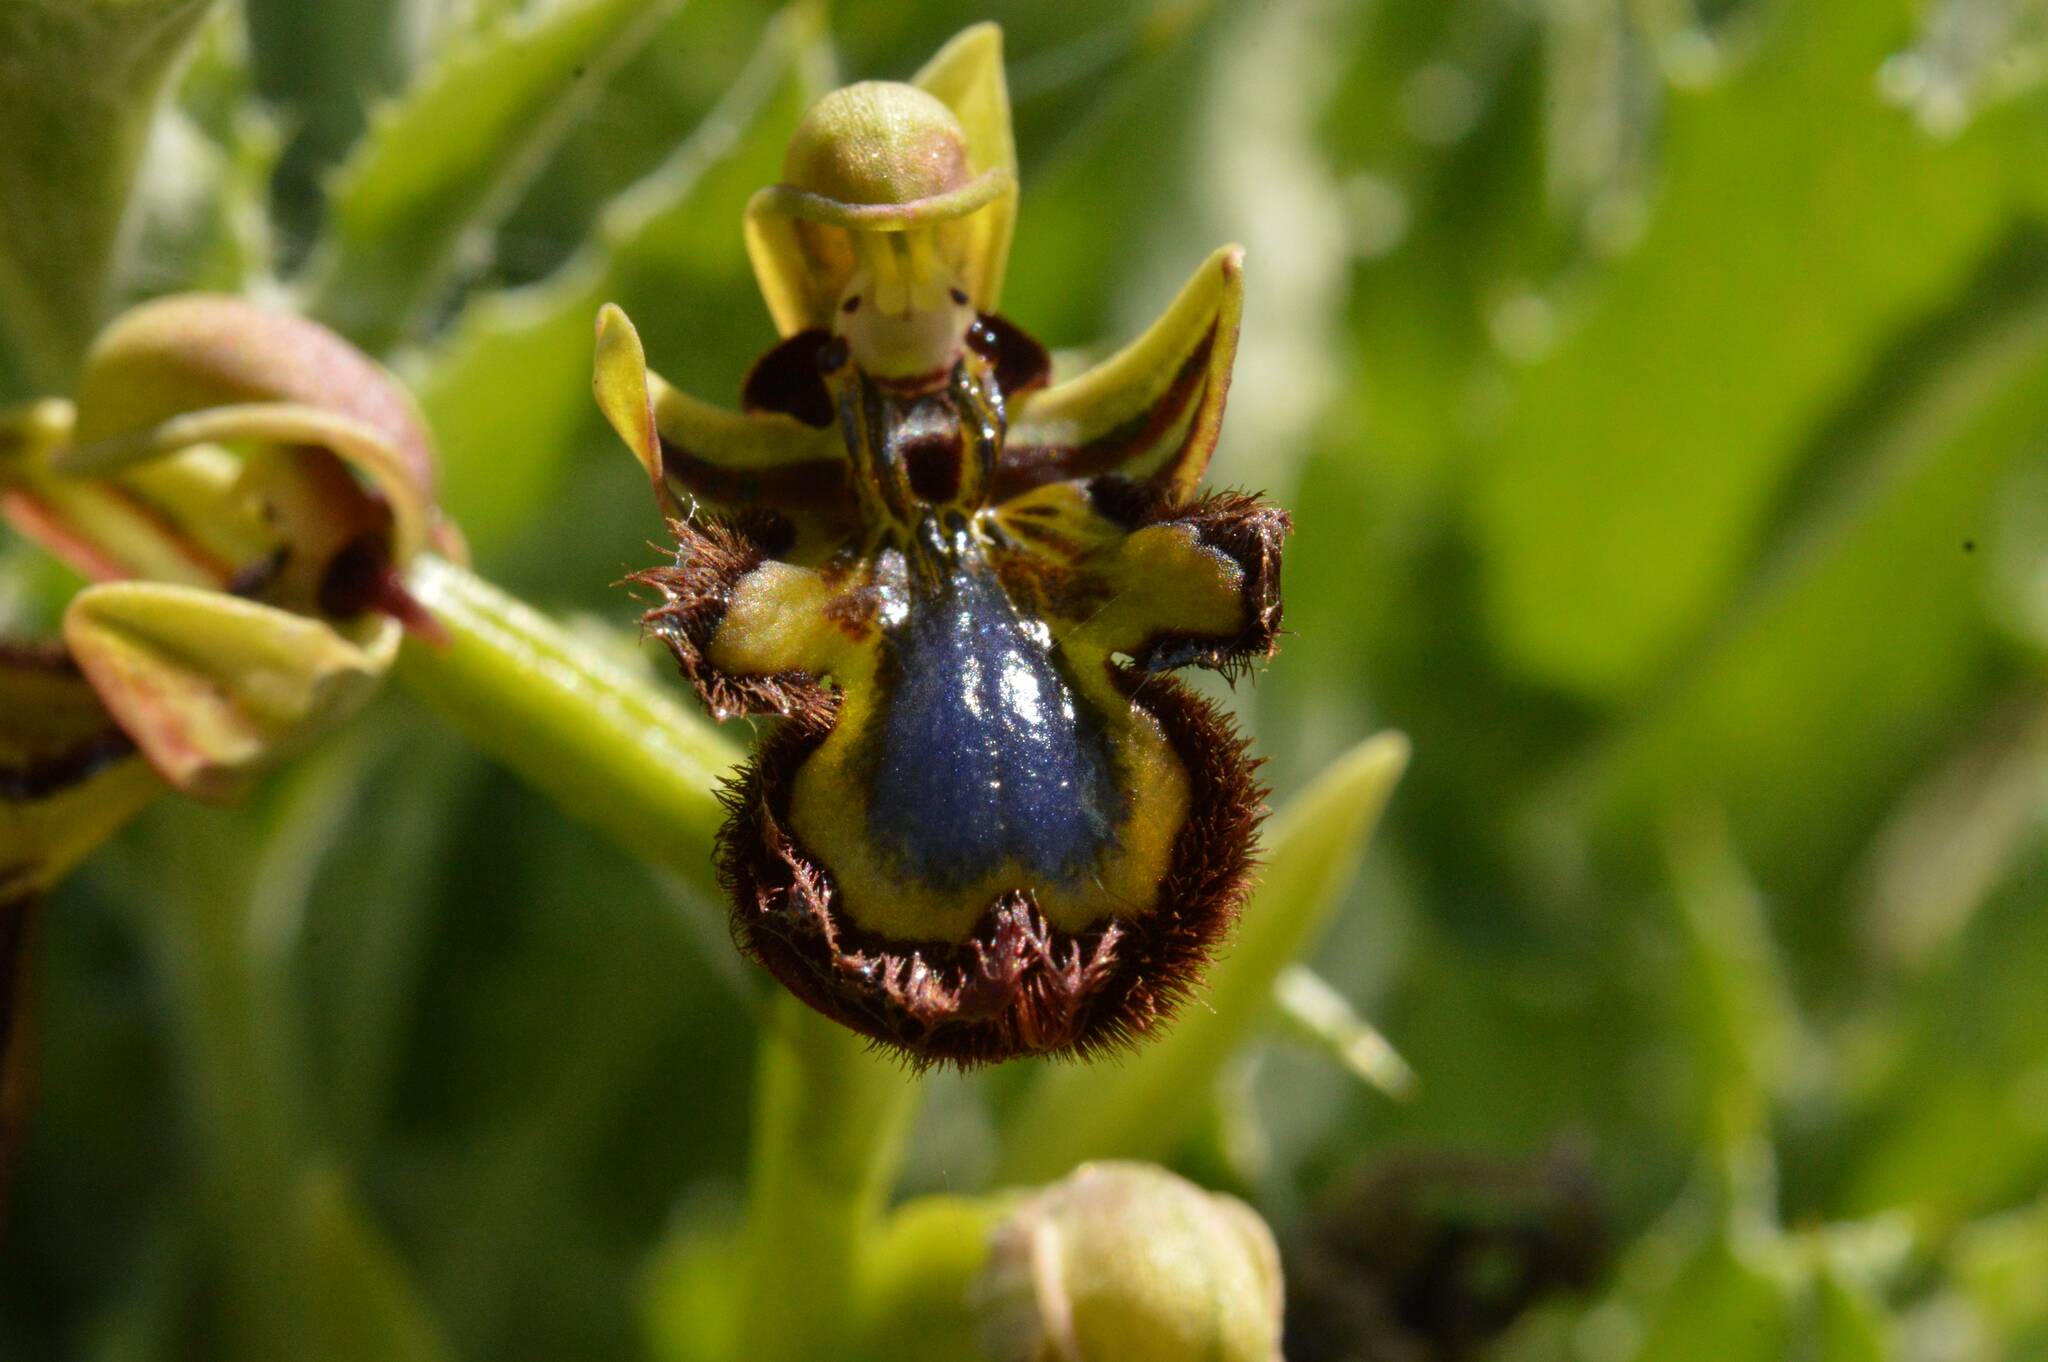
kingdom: Plantae
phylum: Tracheophyta
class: Liliopsida
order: Asparagales
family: Orchidaceae
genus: Ophrys
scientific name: Ophrys speculum
